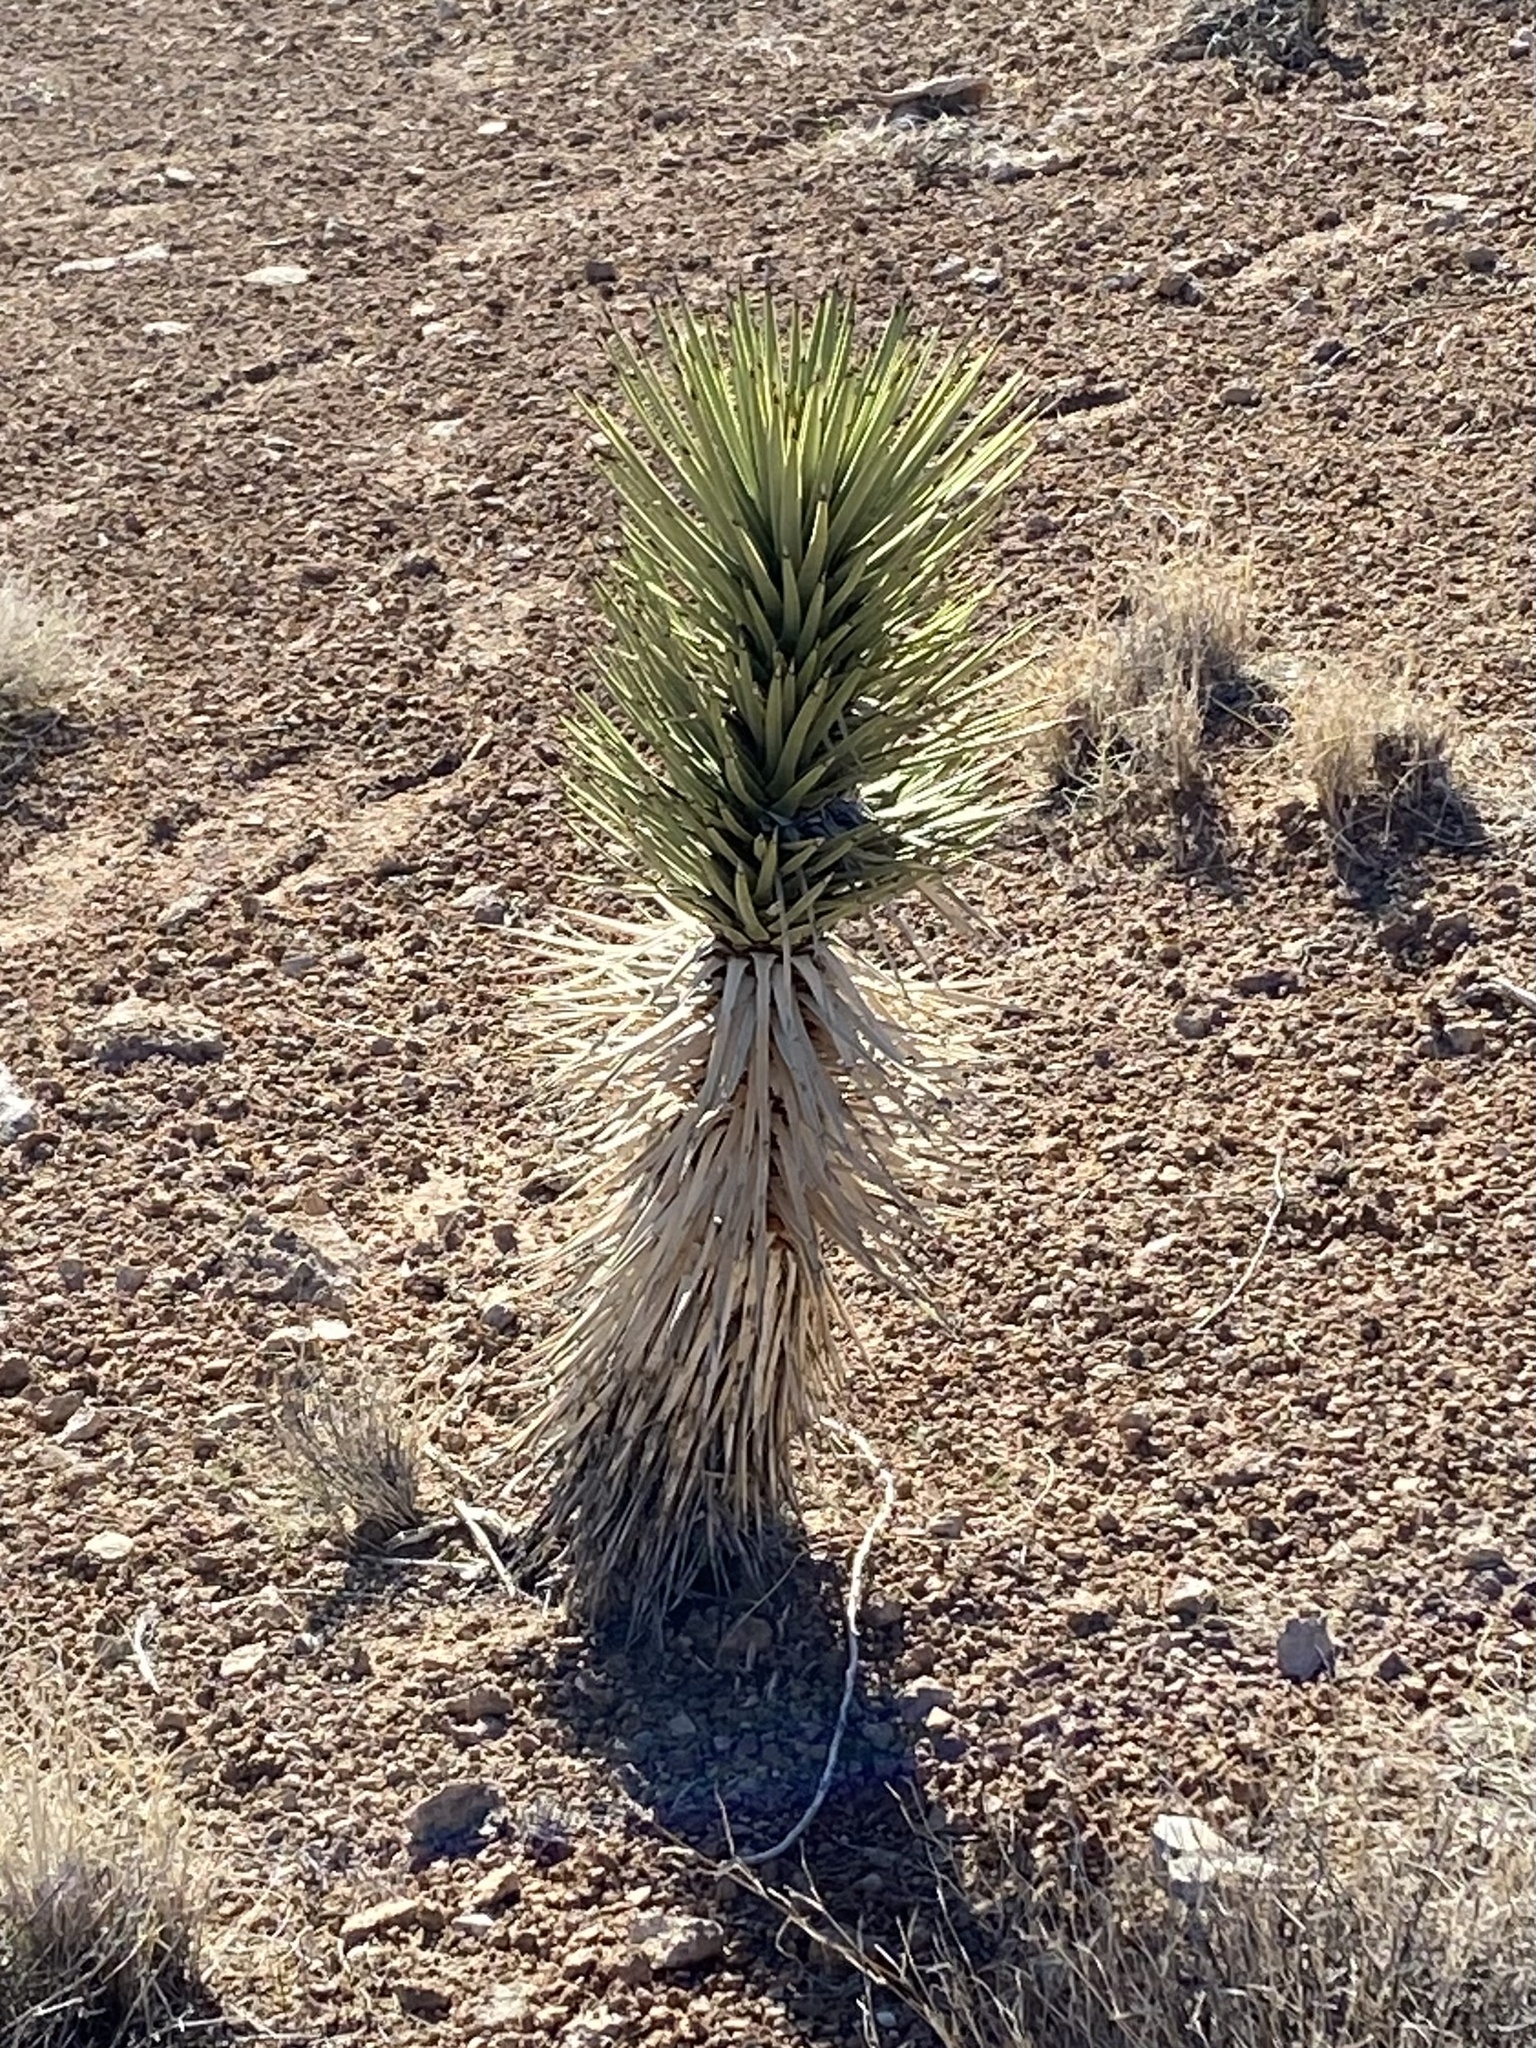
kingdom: Plantae
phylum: Tracheophyta
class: Liliopsida
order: Asparagales
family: Asparagaceae
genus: Yucca
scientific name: Yucca brevifolia
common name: Joshua tree
